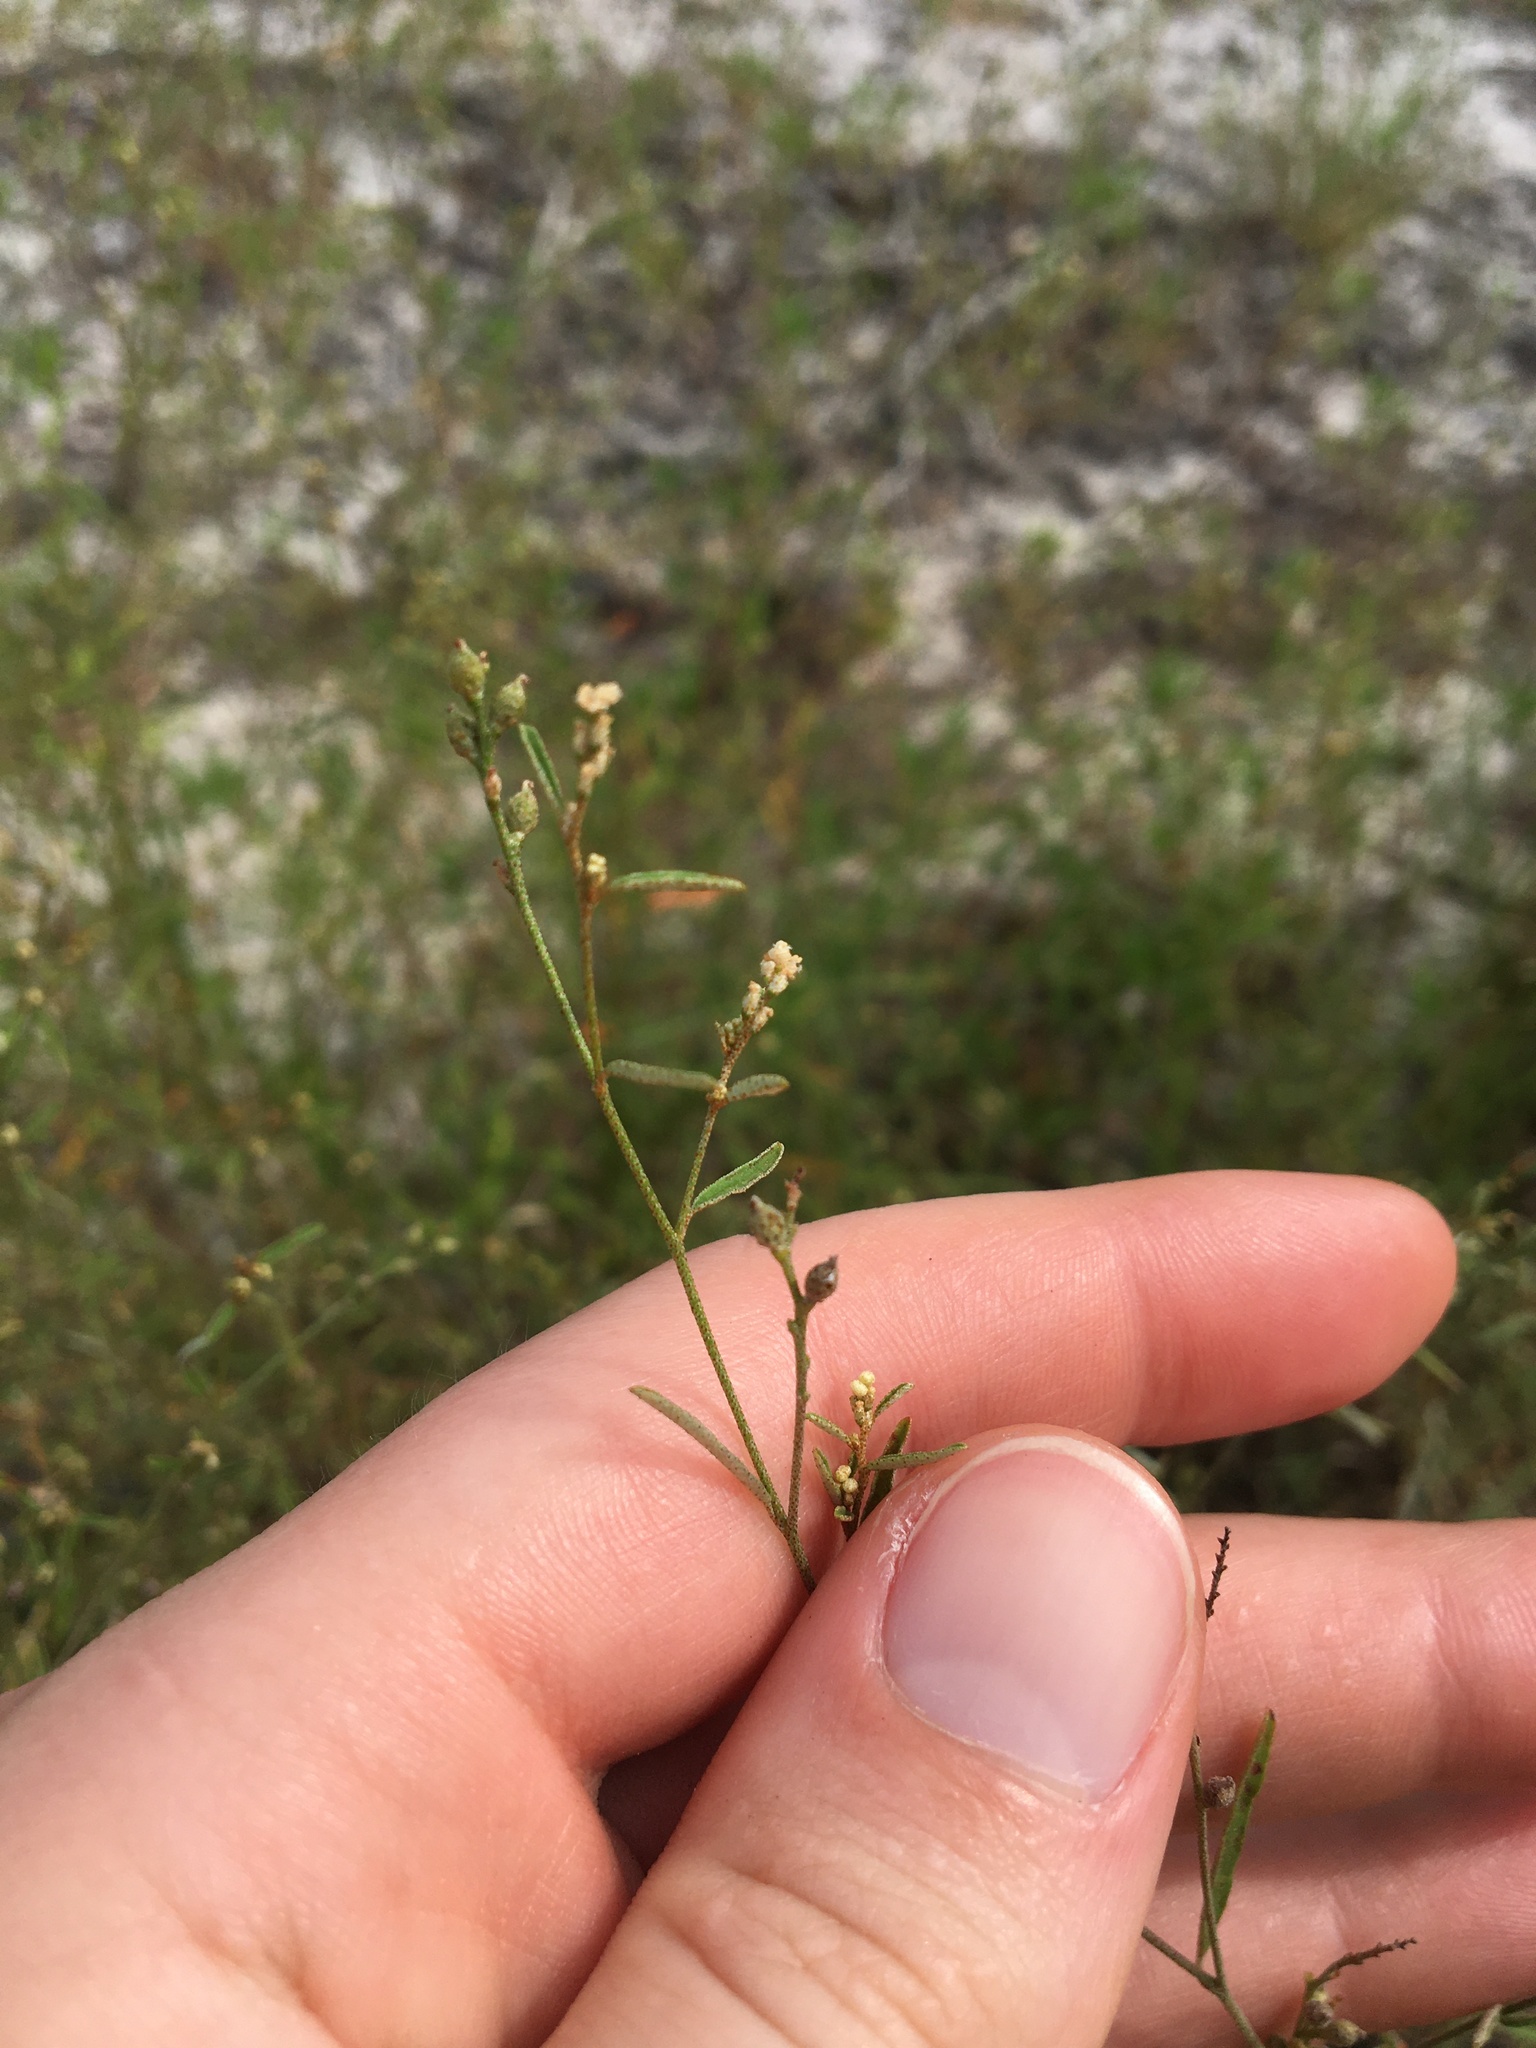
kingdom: Plantae
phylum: Tracheophyta
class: Magnoliopsida
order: Malpighiales
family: Euphorbiaceae
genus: Croton
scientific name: Croton michauxii
